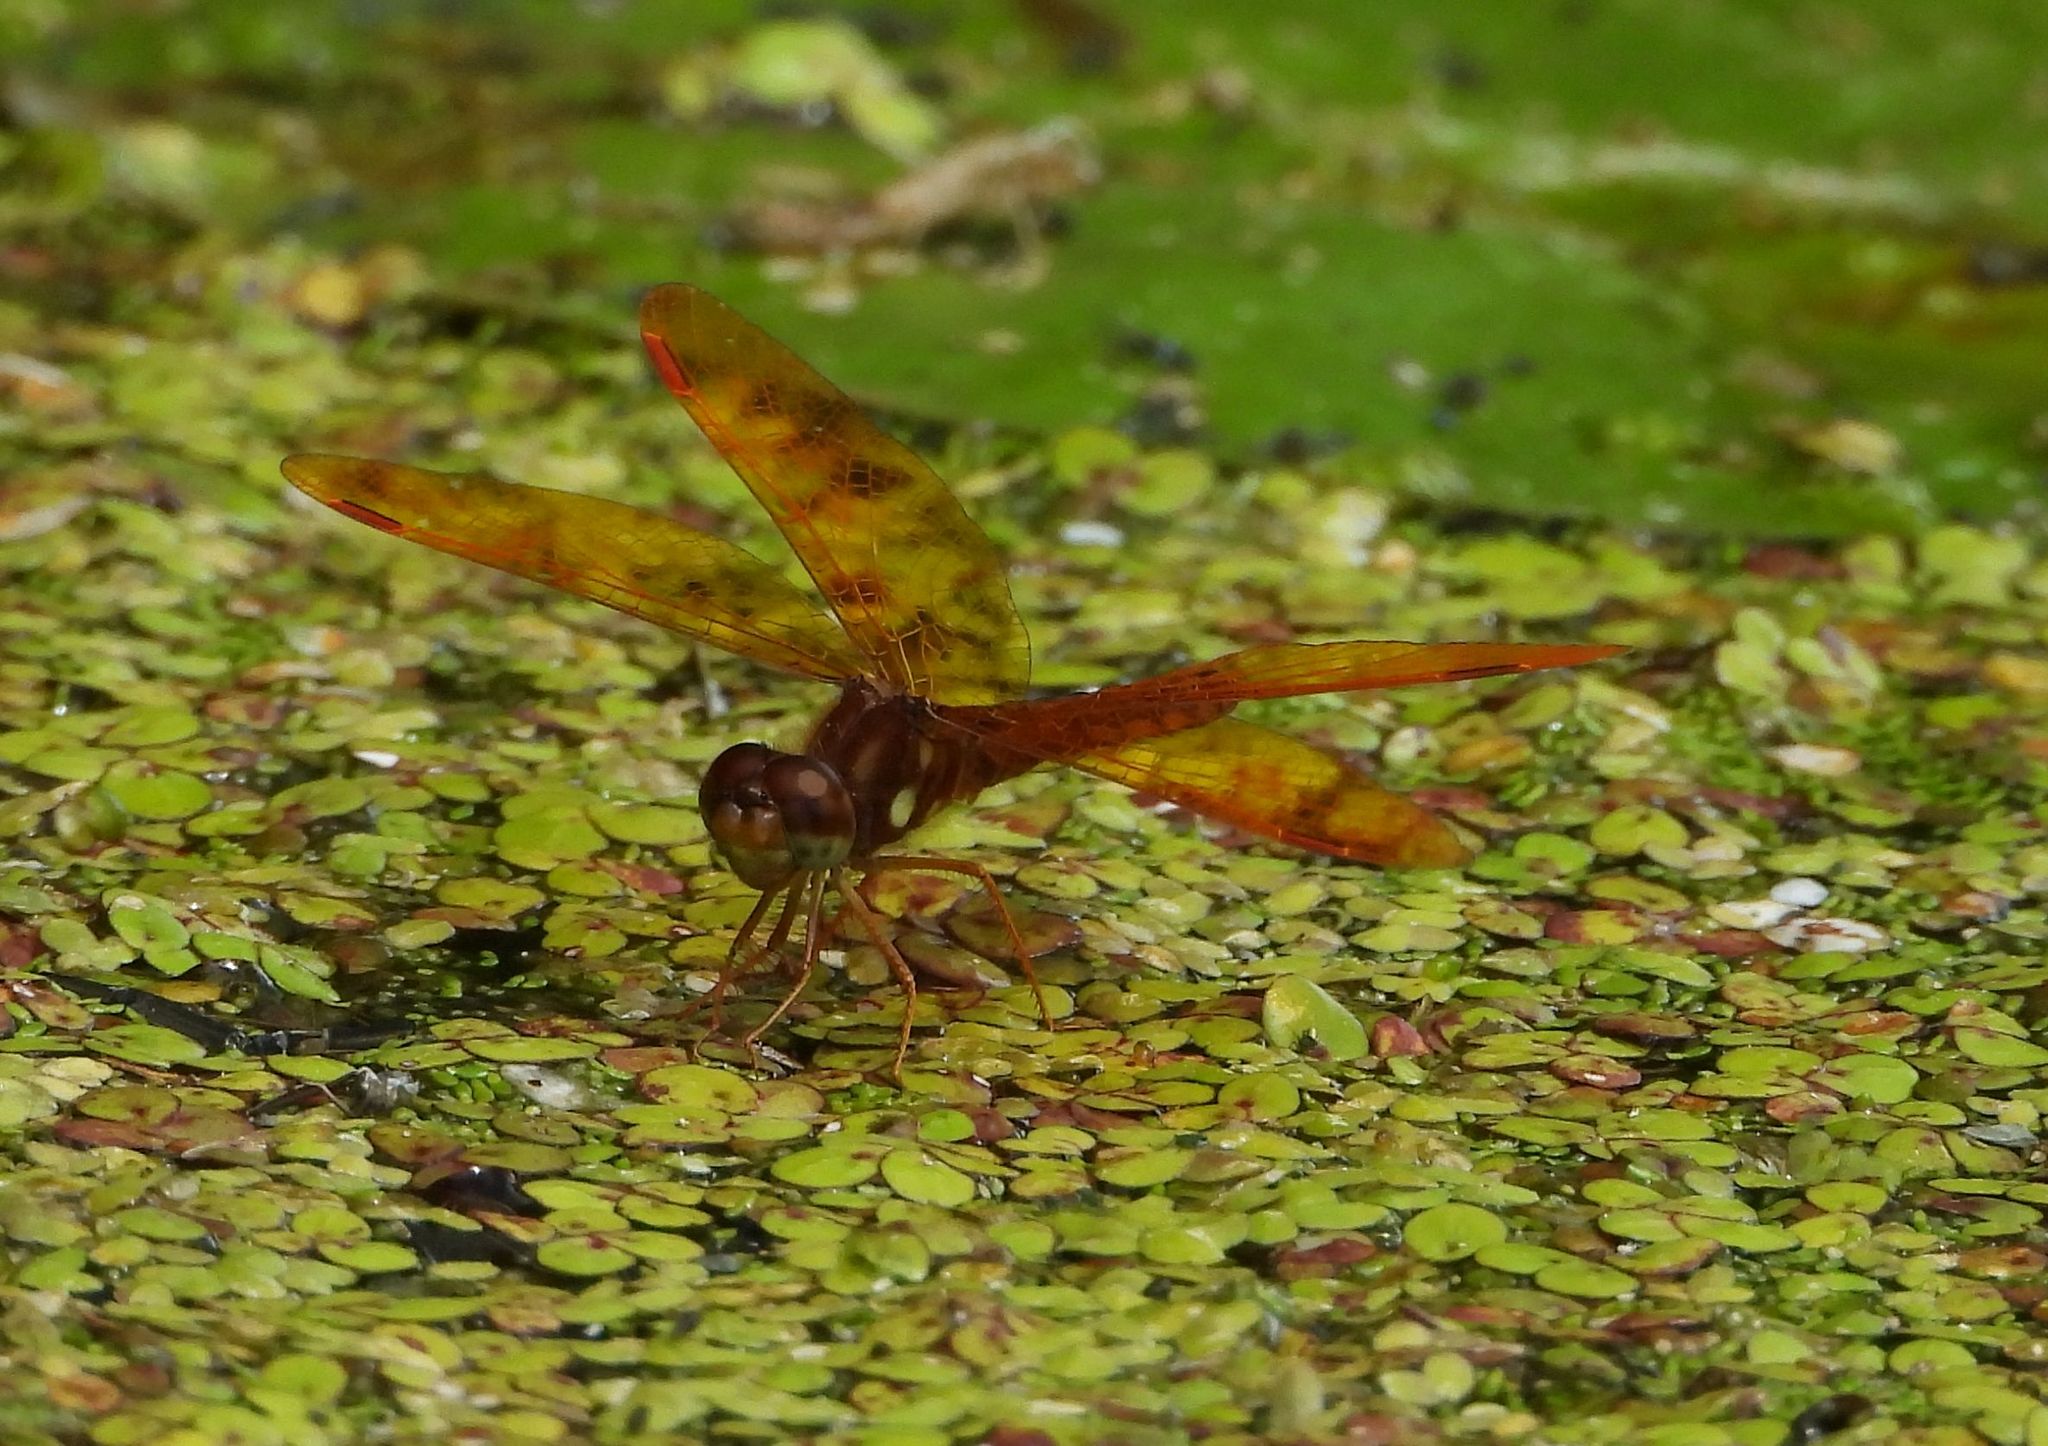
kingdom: Animalia
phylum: Arthropoda
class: Insecta
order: Odonata
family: Libellulidae
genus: Perithemis
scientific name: Perithemis tenera
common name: Eastern amberwing
